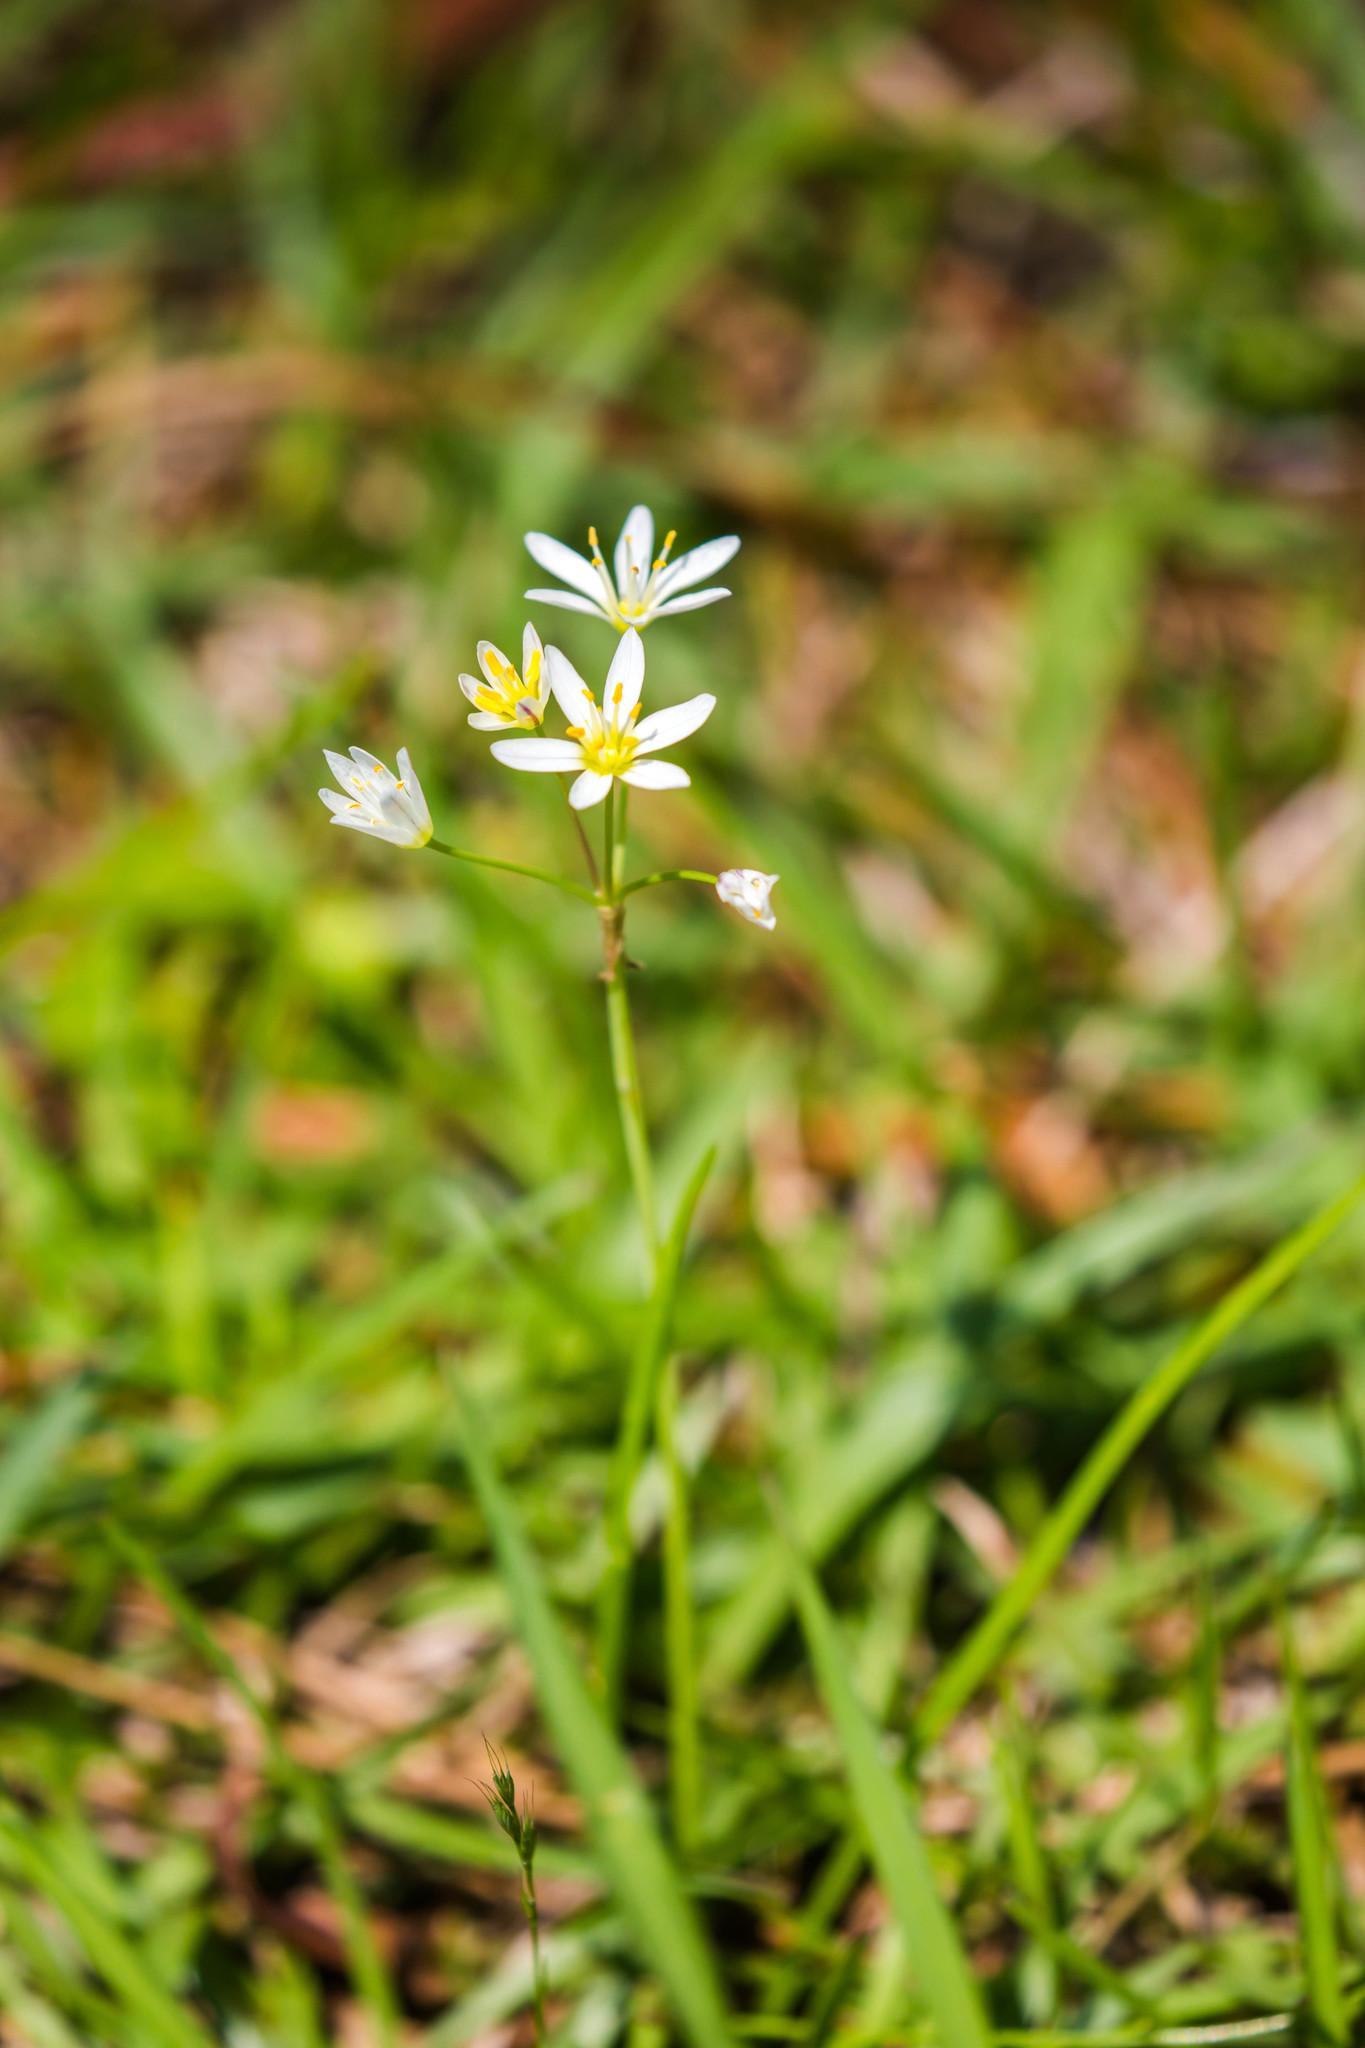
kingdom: Plantae
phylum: Tracheophyta
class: Liliopsida
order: Asparagales
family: Amaryllidaceae
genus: Nothoscordum
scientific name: Nothoscordum bivalve
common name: Crow-poison
